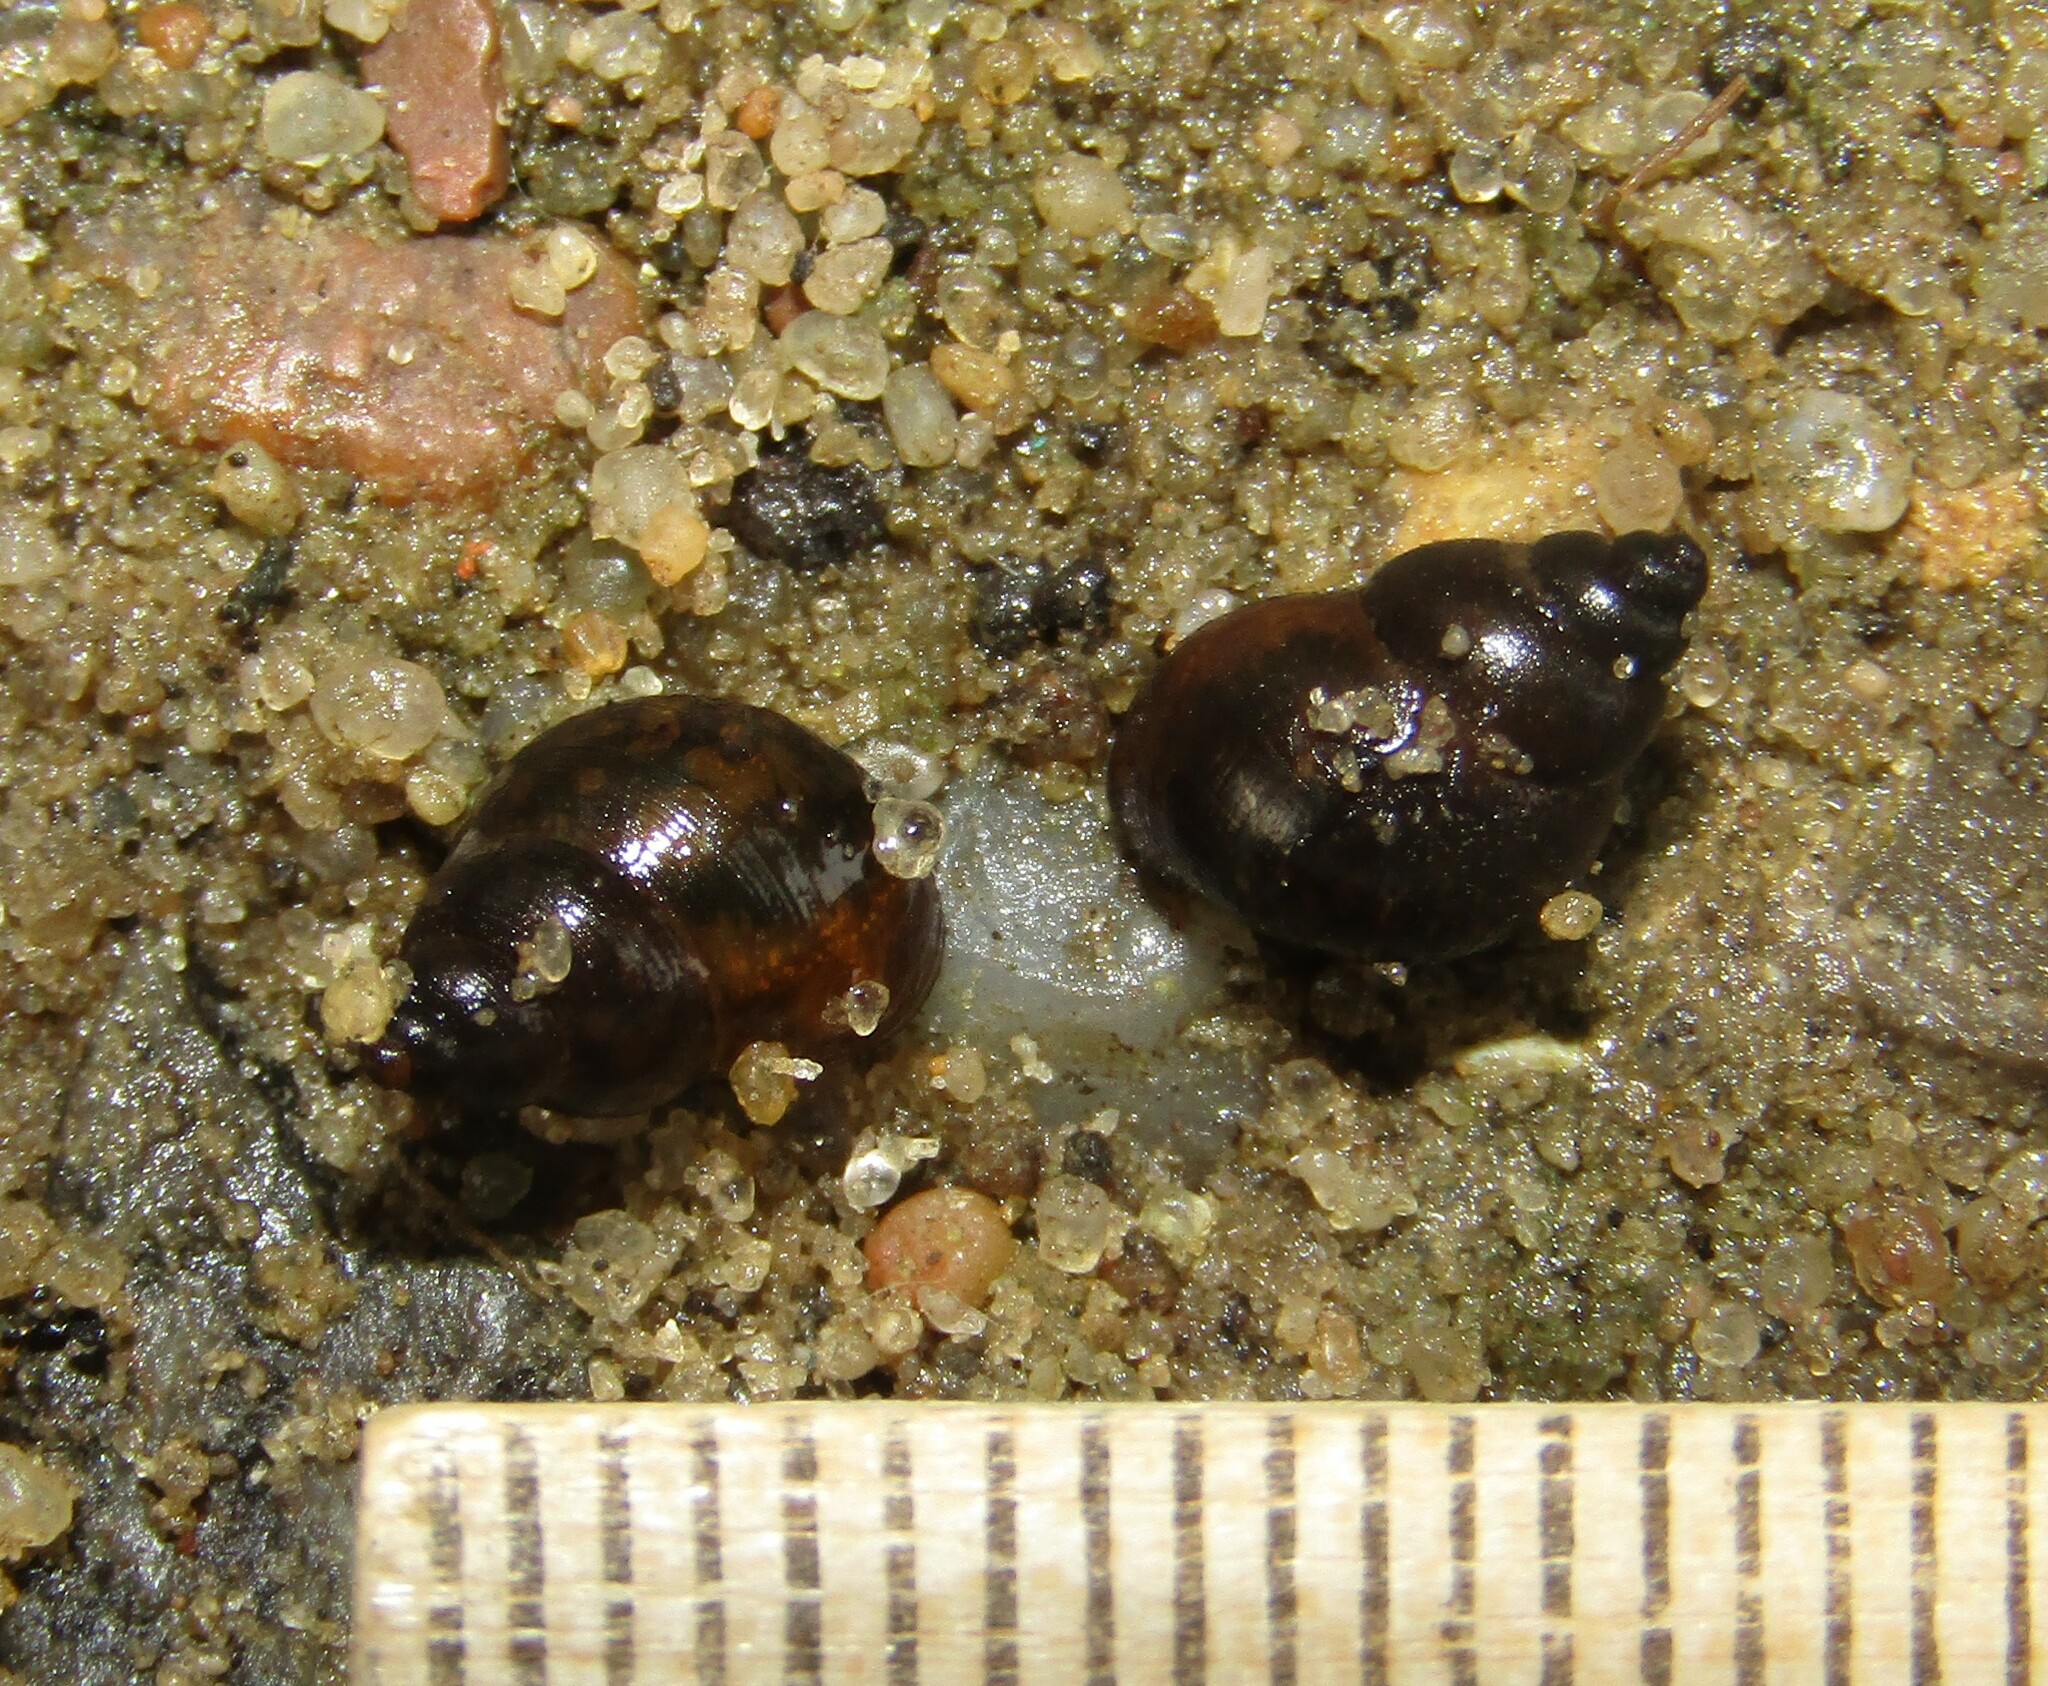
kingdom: Animalia
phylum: Mollusca
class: Gastropoda
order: Littorinimorpha
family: Bithyniidae
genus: Bithynia
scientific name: Bithynia tentaculata
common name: Common bithynia
